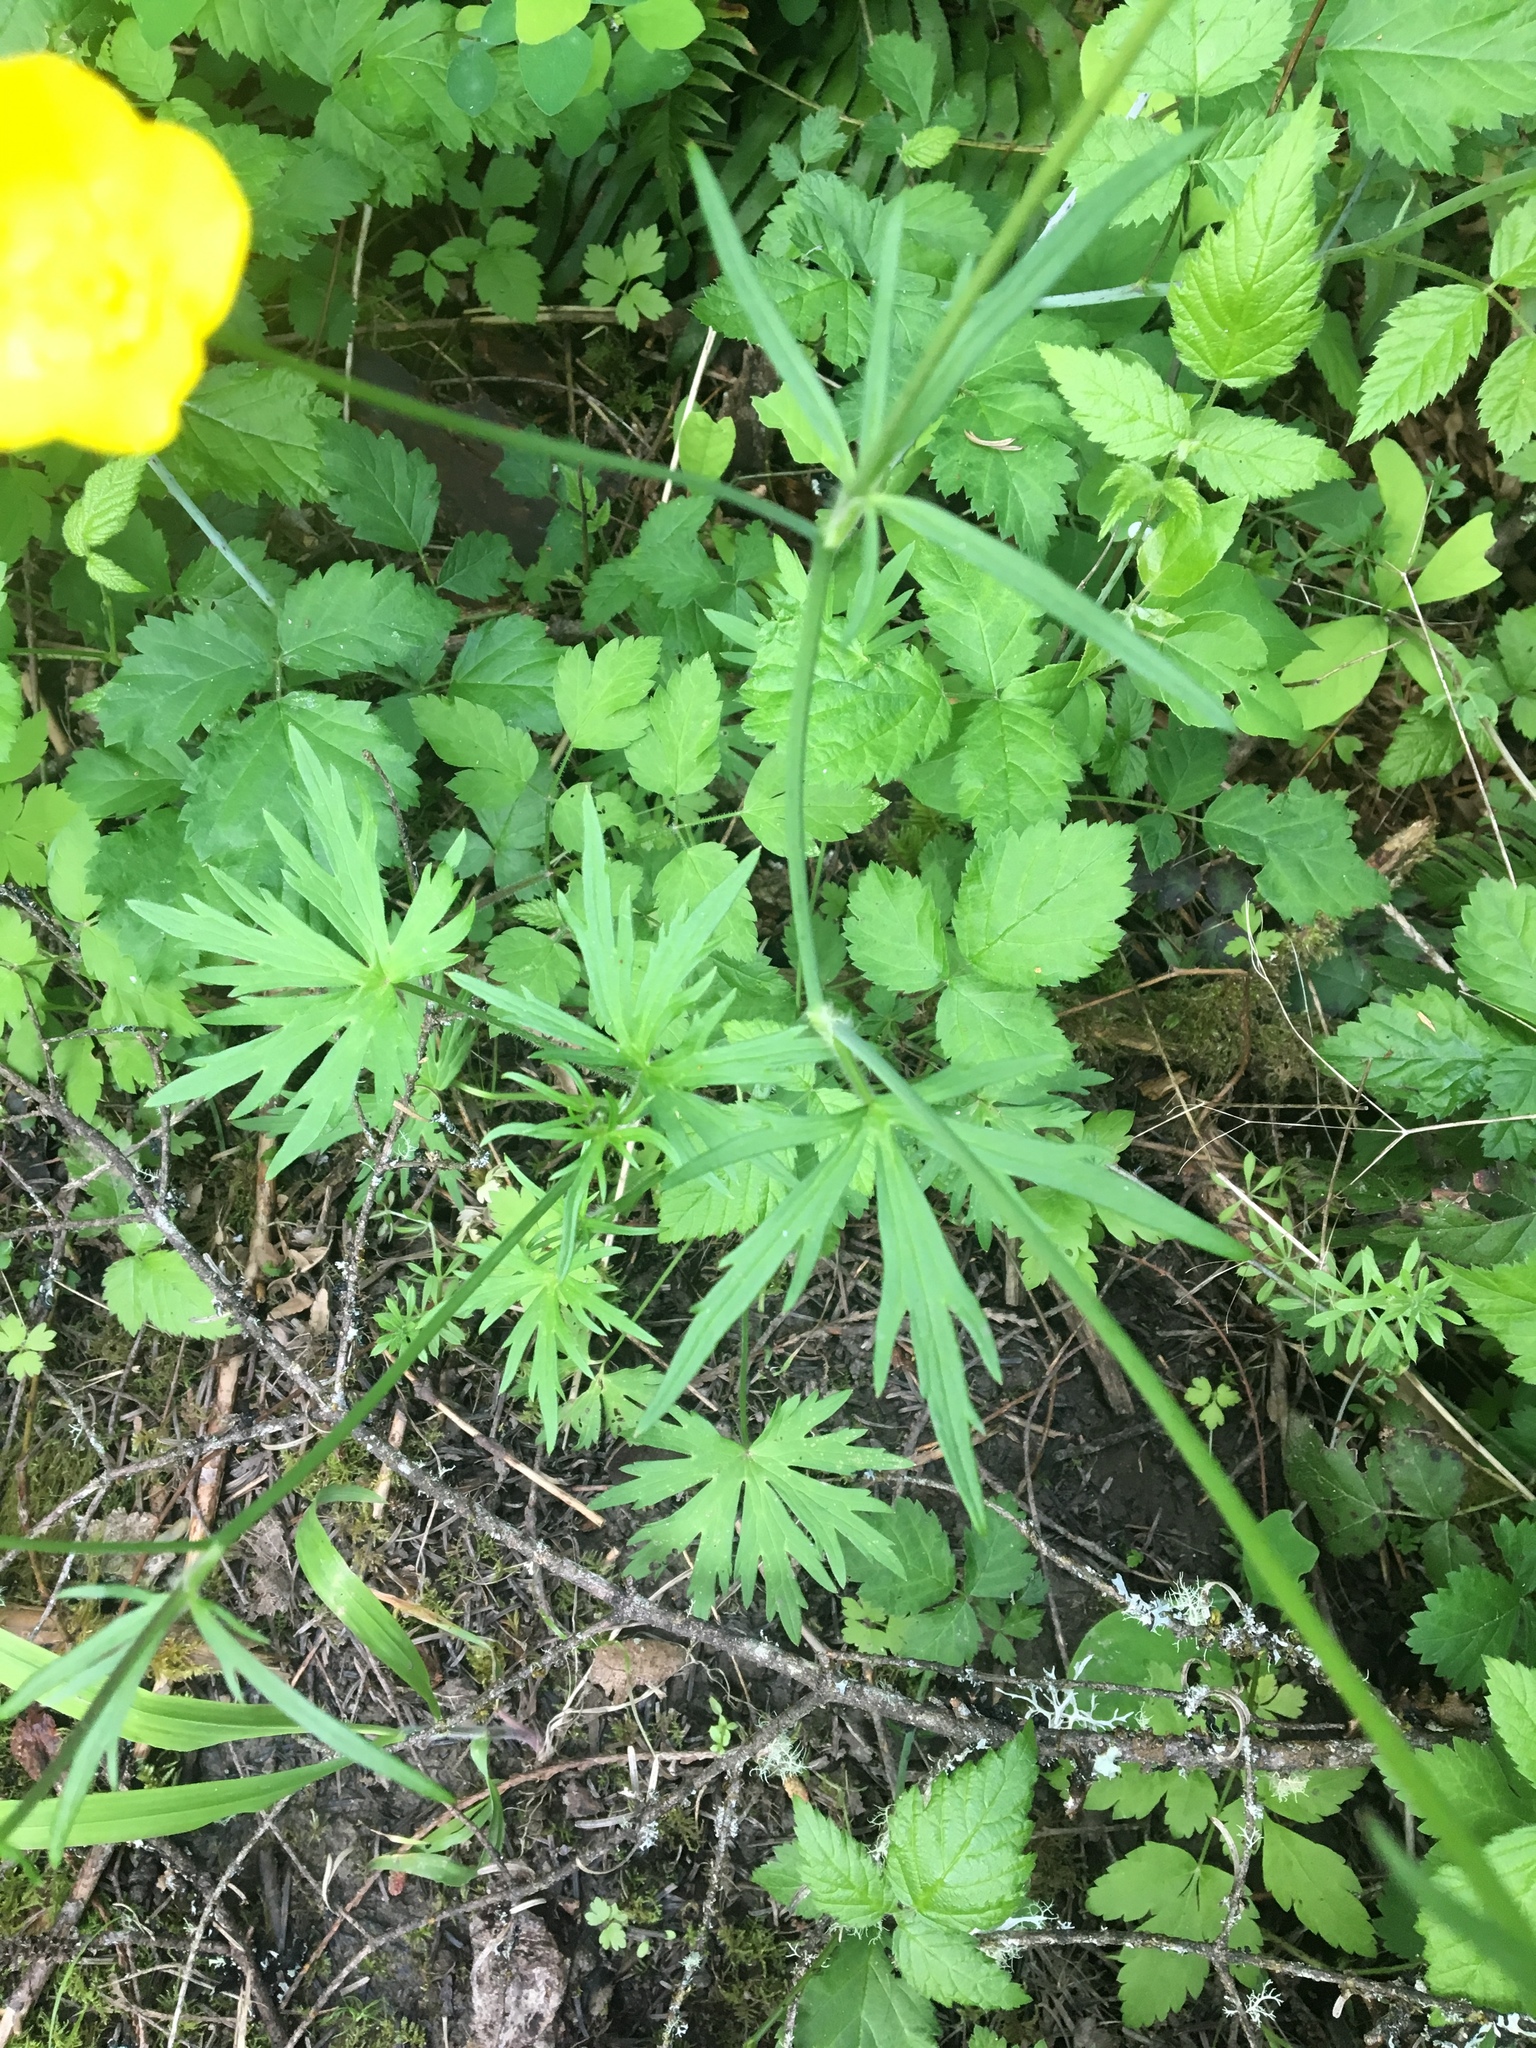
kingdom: Plantae
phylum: Tracheophyta
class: Magnoliopsida
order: Ranunculales
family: Ranunculaceae
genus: Ranunculus
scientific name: Ranunculus acris
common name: Meadow buttercup
